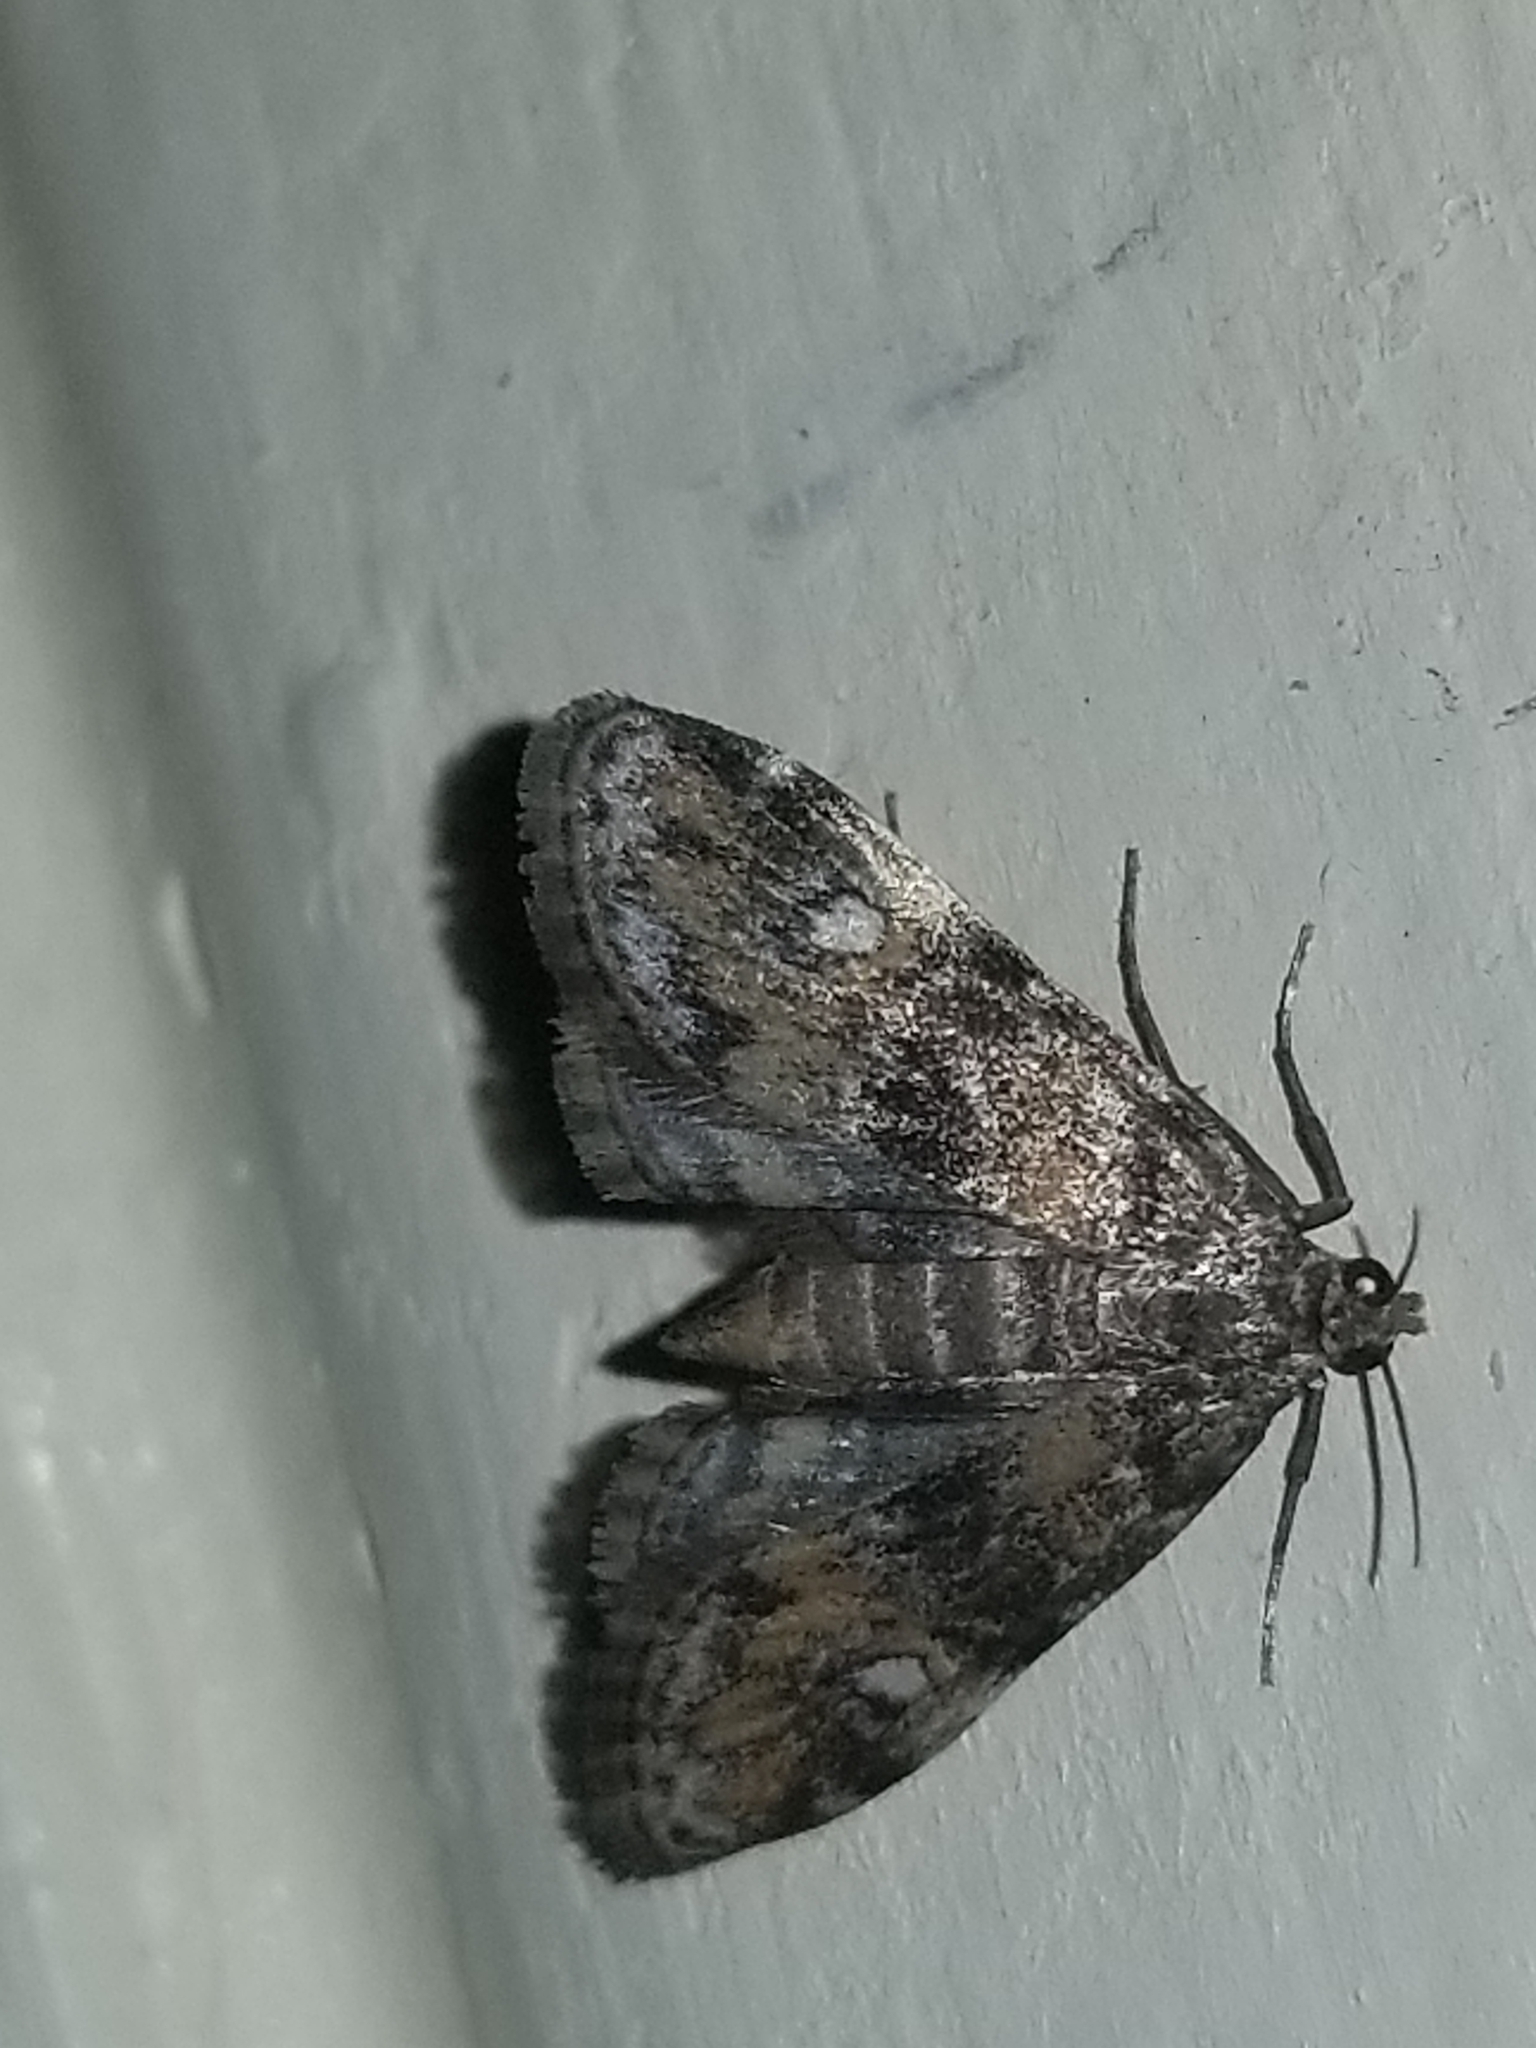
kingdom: Animalia
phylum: Arthropoda
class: Insecta
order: Lepidoptera
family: Crambidae
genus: Elophila
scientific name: Elophila obliteralis
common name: Waterlily leafcutter moth
